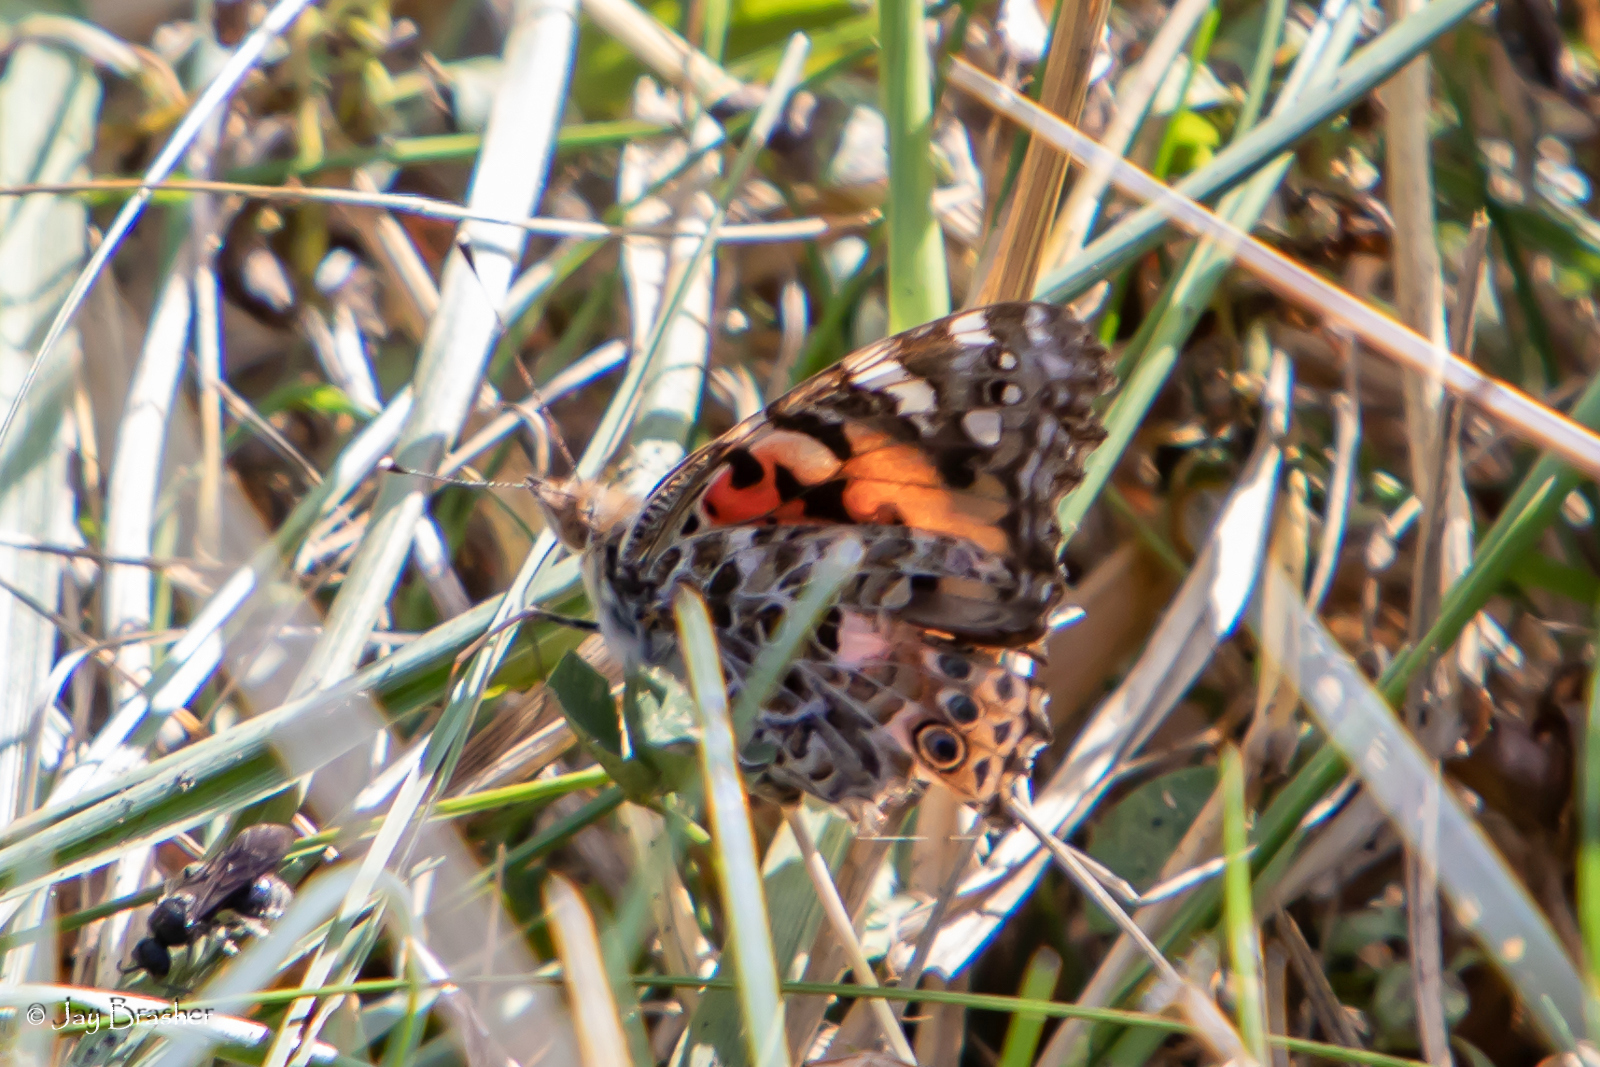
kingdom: Animalia
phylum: Arthropoda
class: Insecta
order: Lepidoptera
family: Nymphalidae
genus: Vanessa
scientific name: Vanessa cardui
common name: Painted lady
